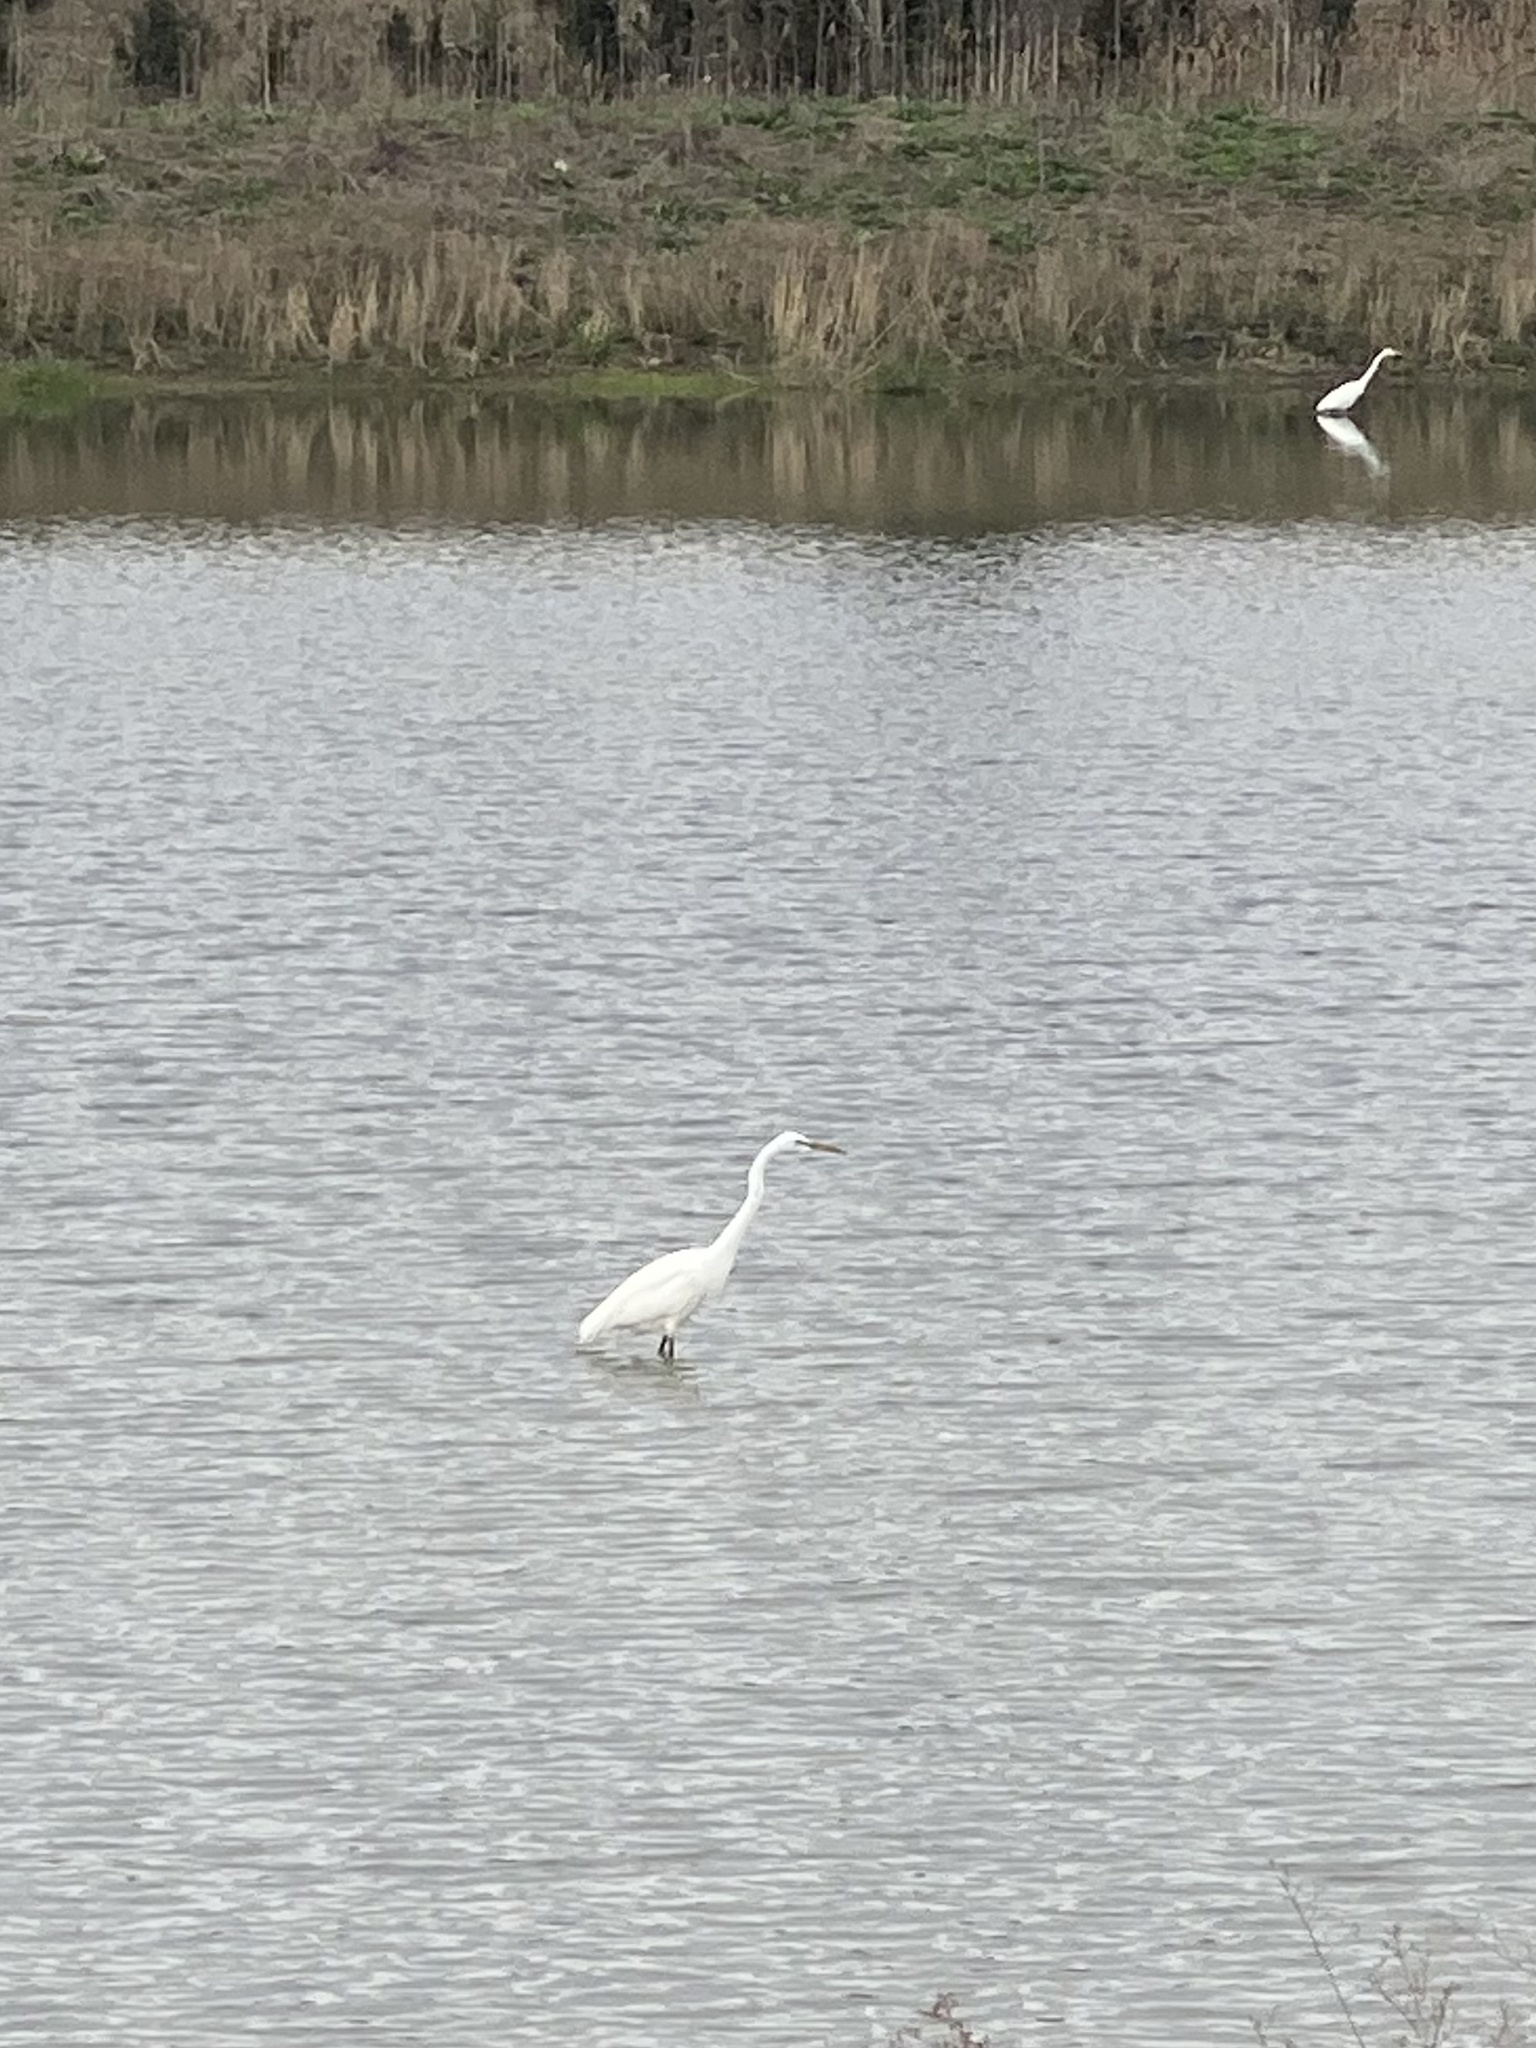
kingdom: Animalia
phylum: Chordata
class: Aves
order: Pelecaniformes
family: Ardeidae
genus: Ardea
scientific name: Ardea alba
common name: Great egret
